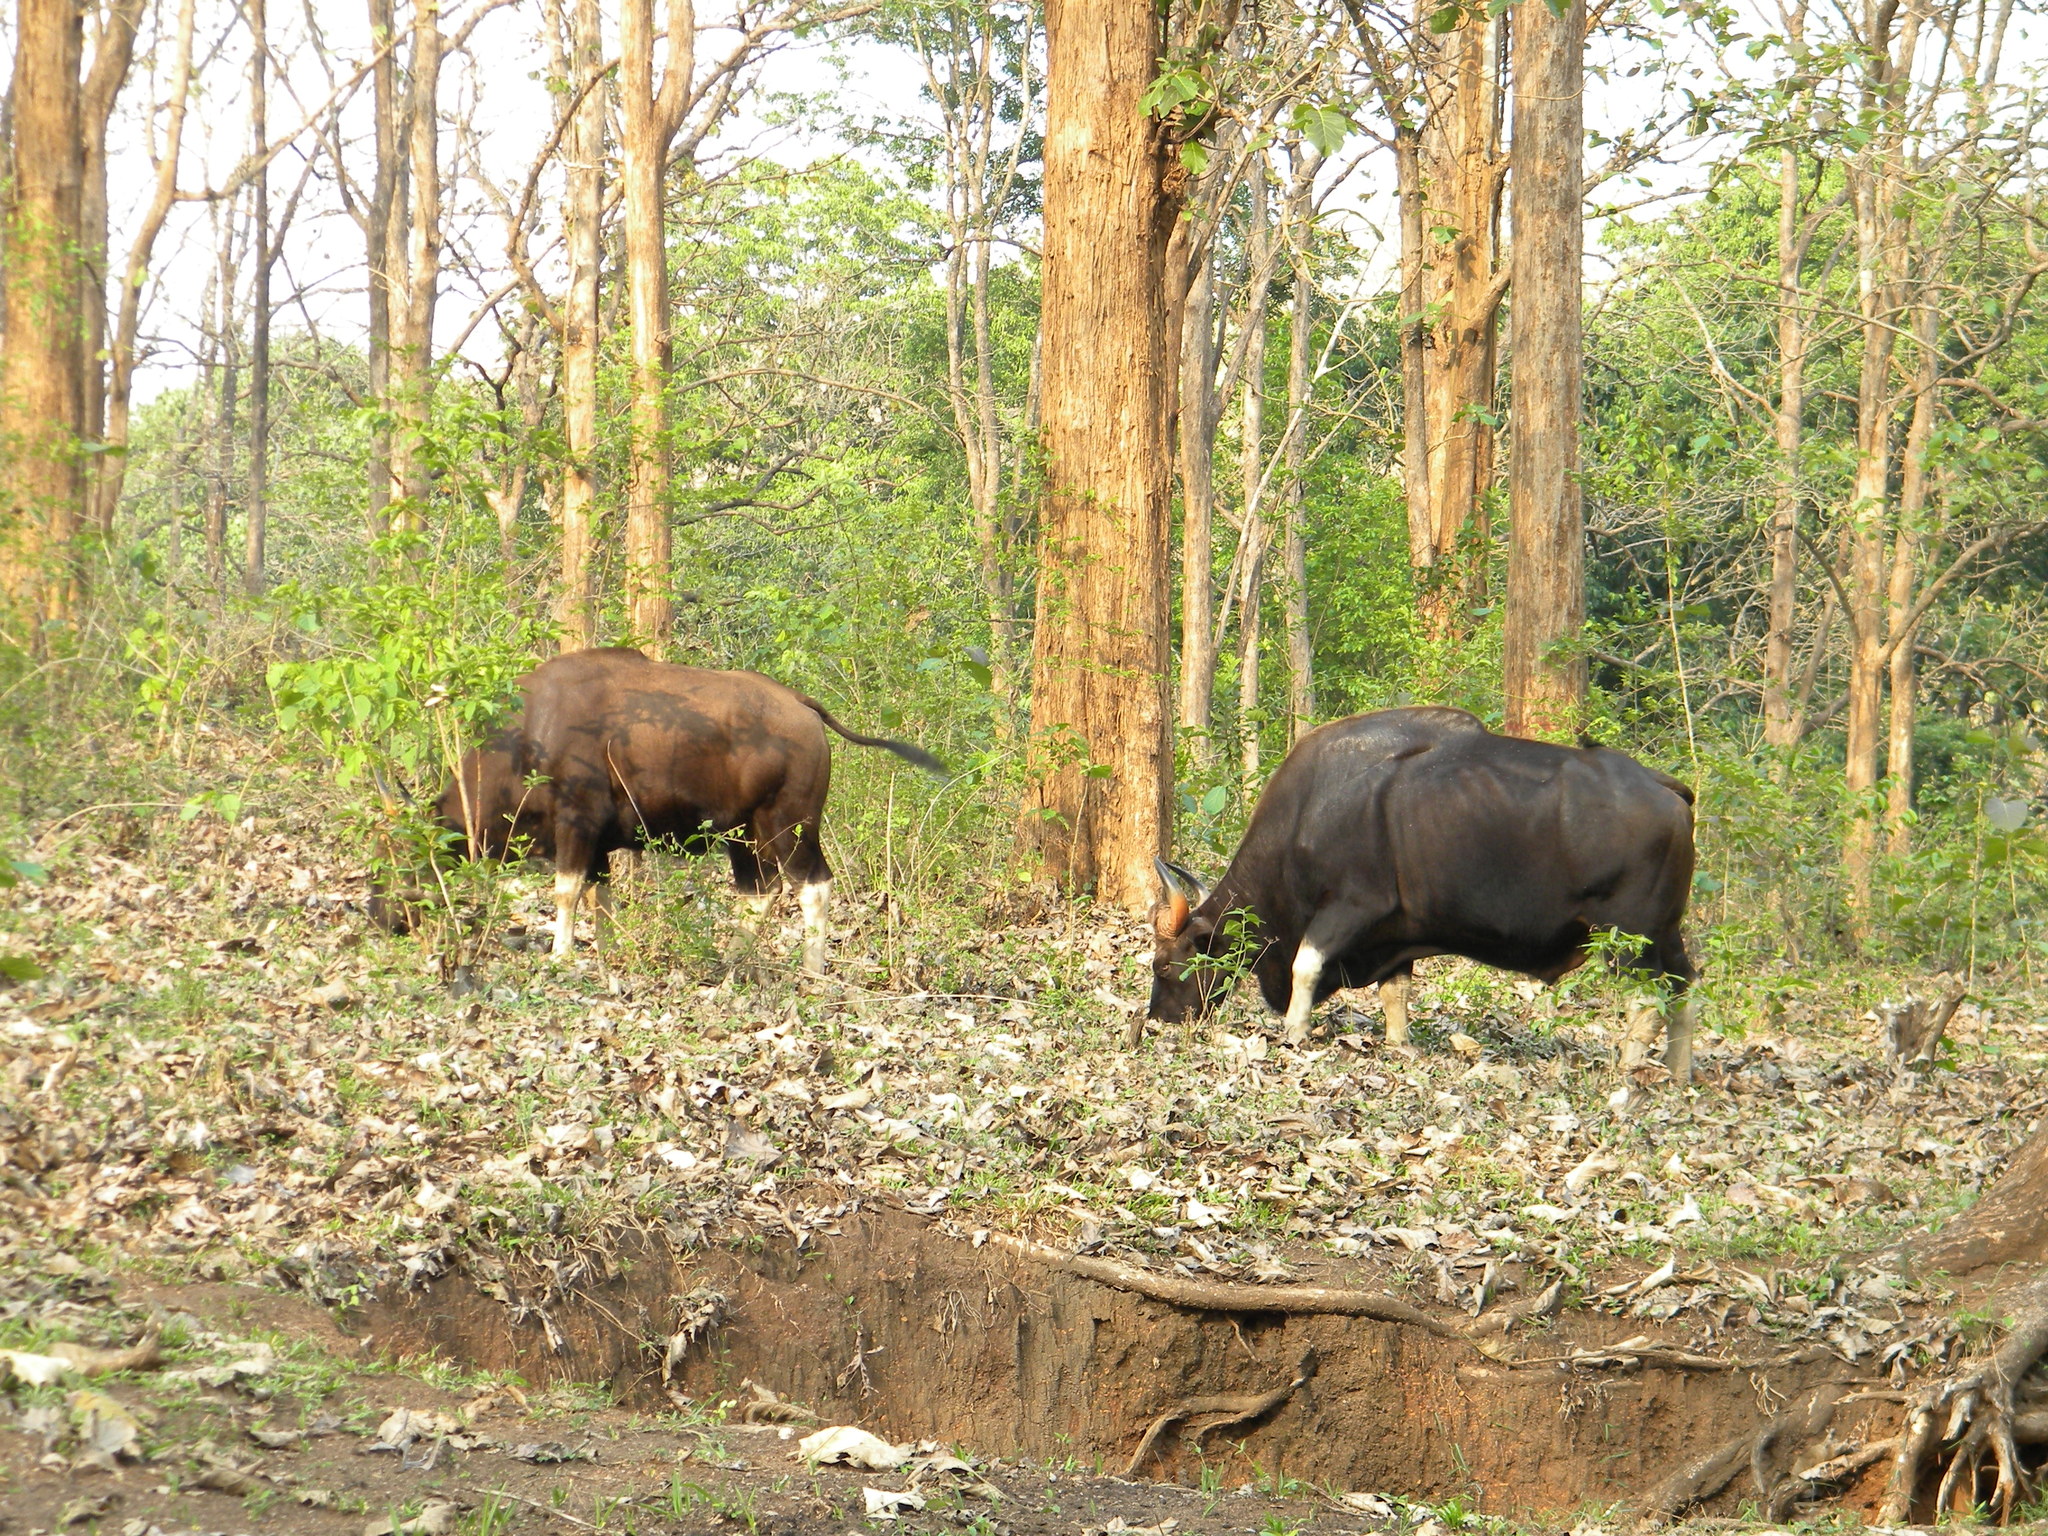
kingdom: Animalia
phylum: Chordata
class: Mammalia
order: Artiodactyla
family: Bovidae
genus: Bos
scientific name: Bos frontalis
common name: Gaur
